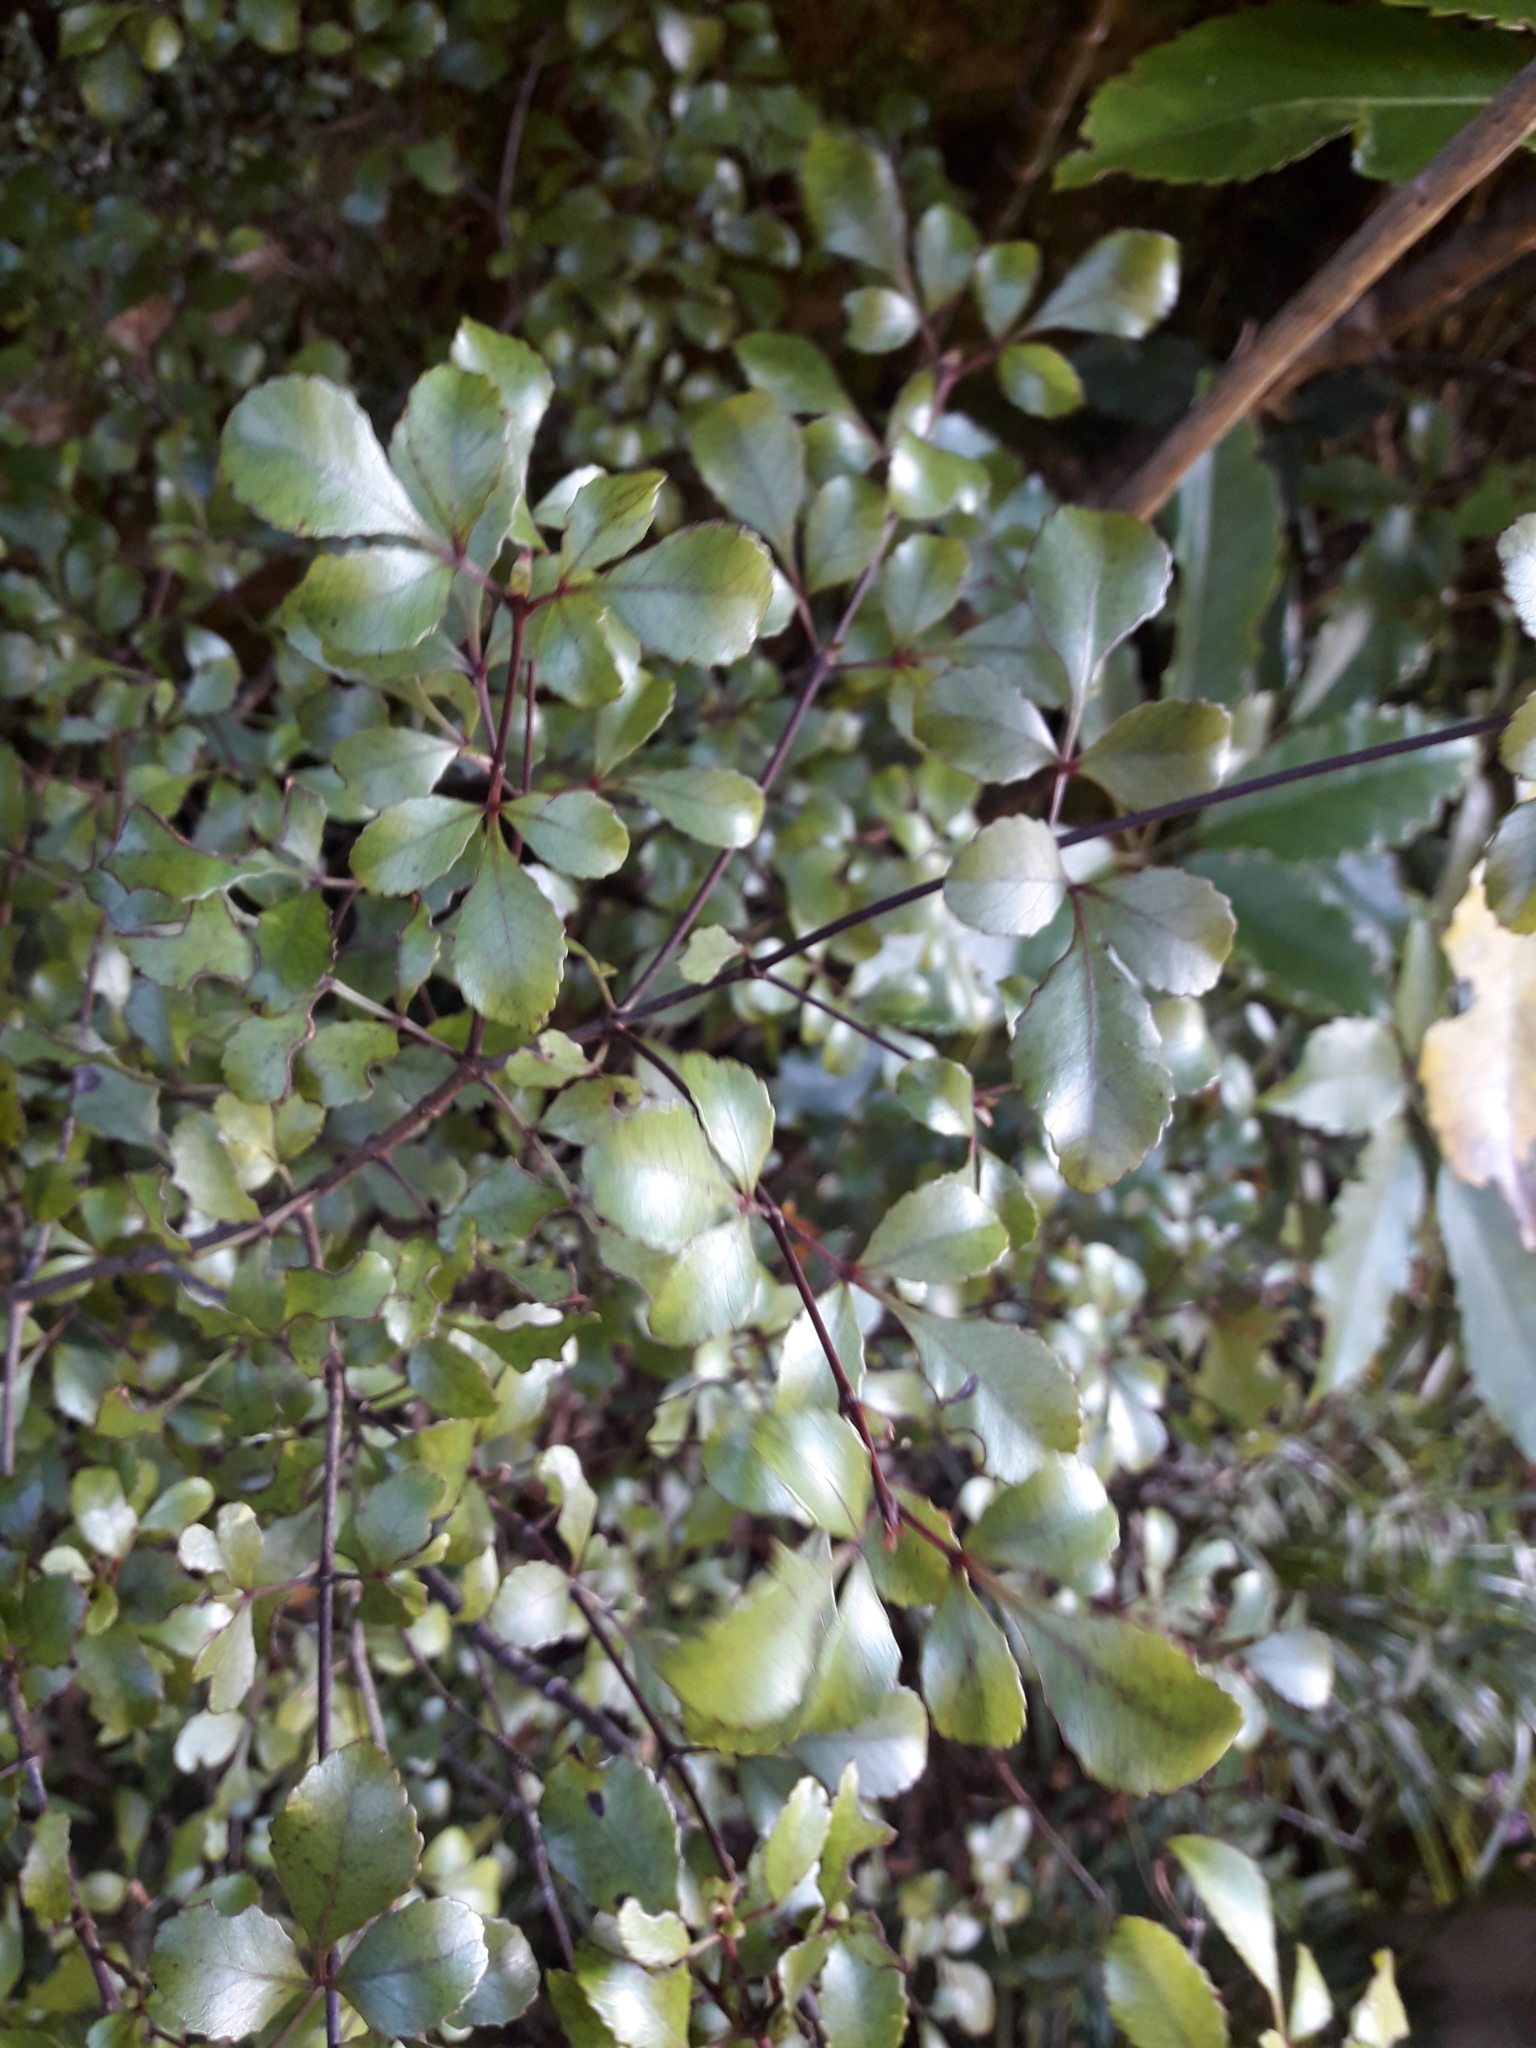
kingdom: Plantae
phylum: Tracheophyta
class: Magnoliopsida
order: Oxalidales
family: Cunoniaceae
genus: Pterophylla
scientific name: Pterophylla sylvicola
